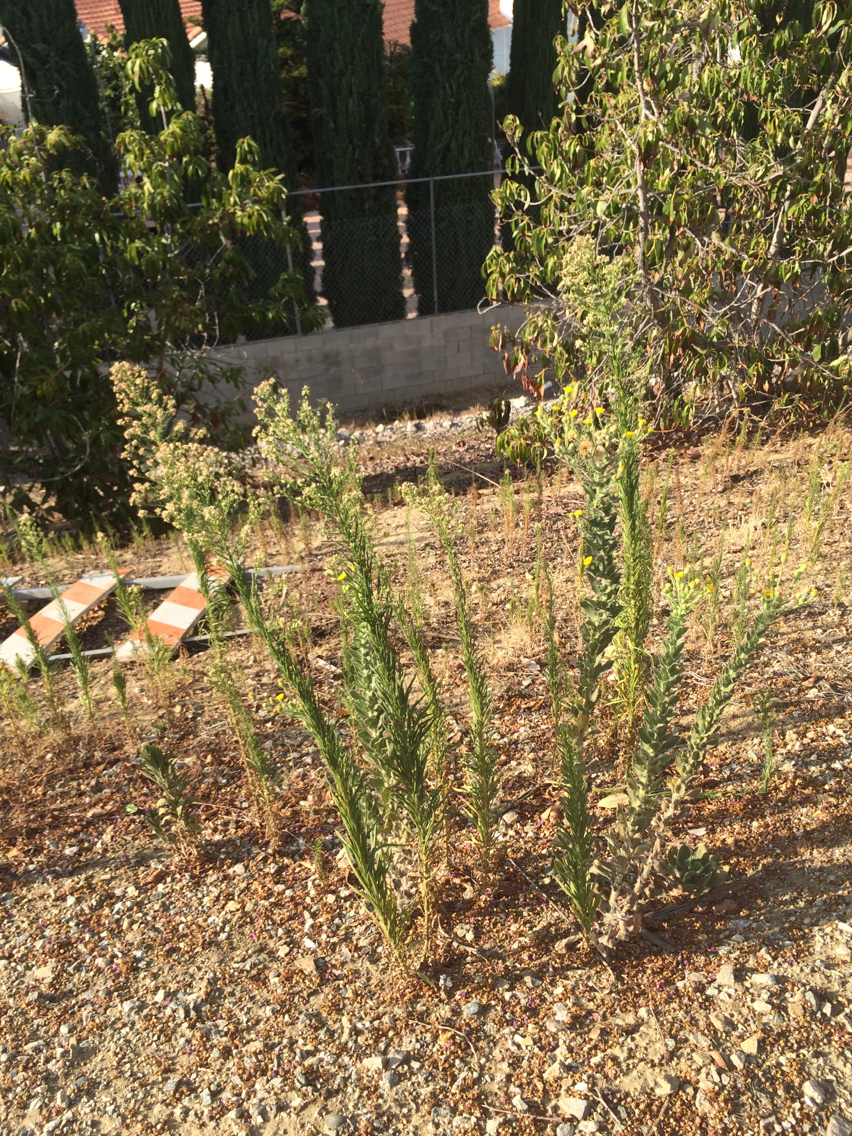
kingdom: Plantae
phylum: Tracheophyta
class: Magnoliopsida
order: Asterales
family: Asteraceae
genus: Heterotheca
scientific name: Heterotheca grandiflora
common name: Telegraphweed
